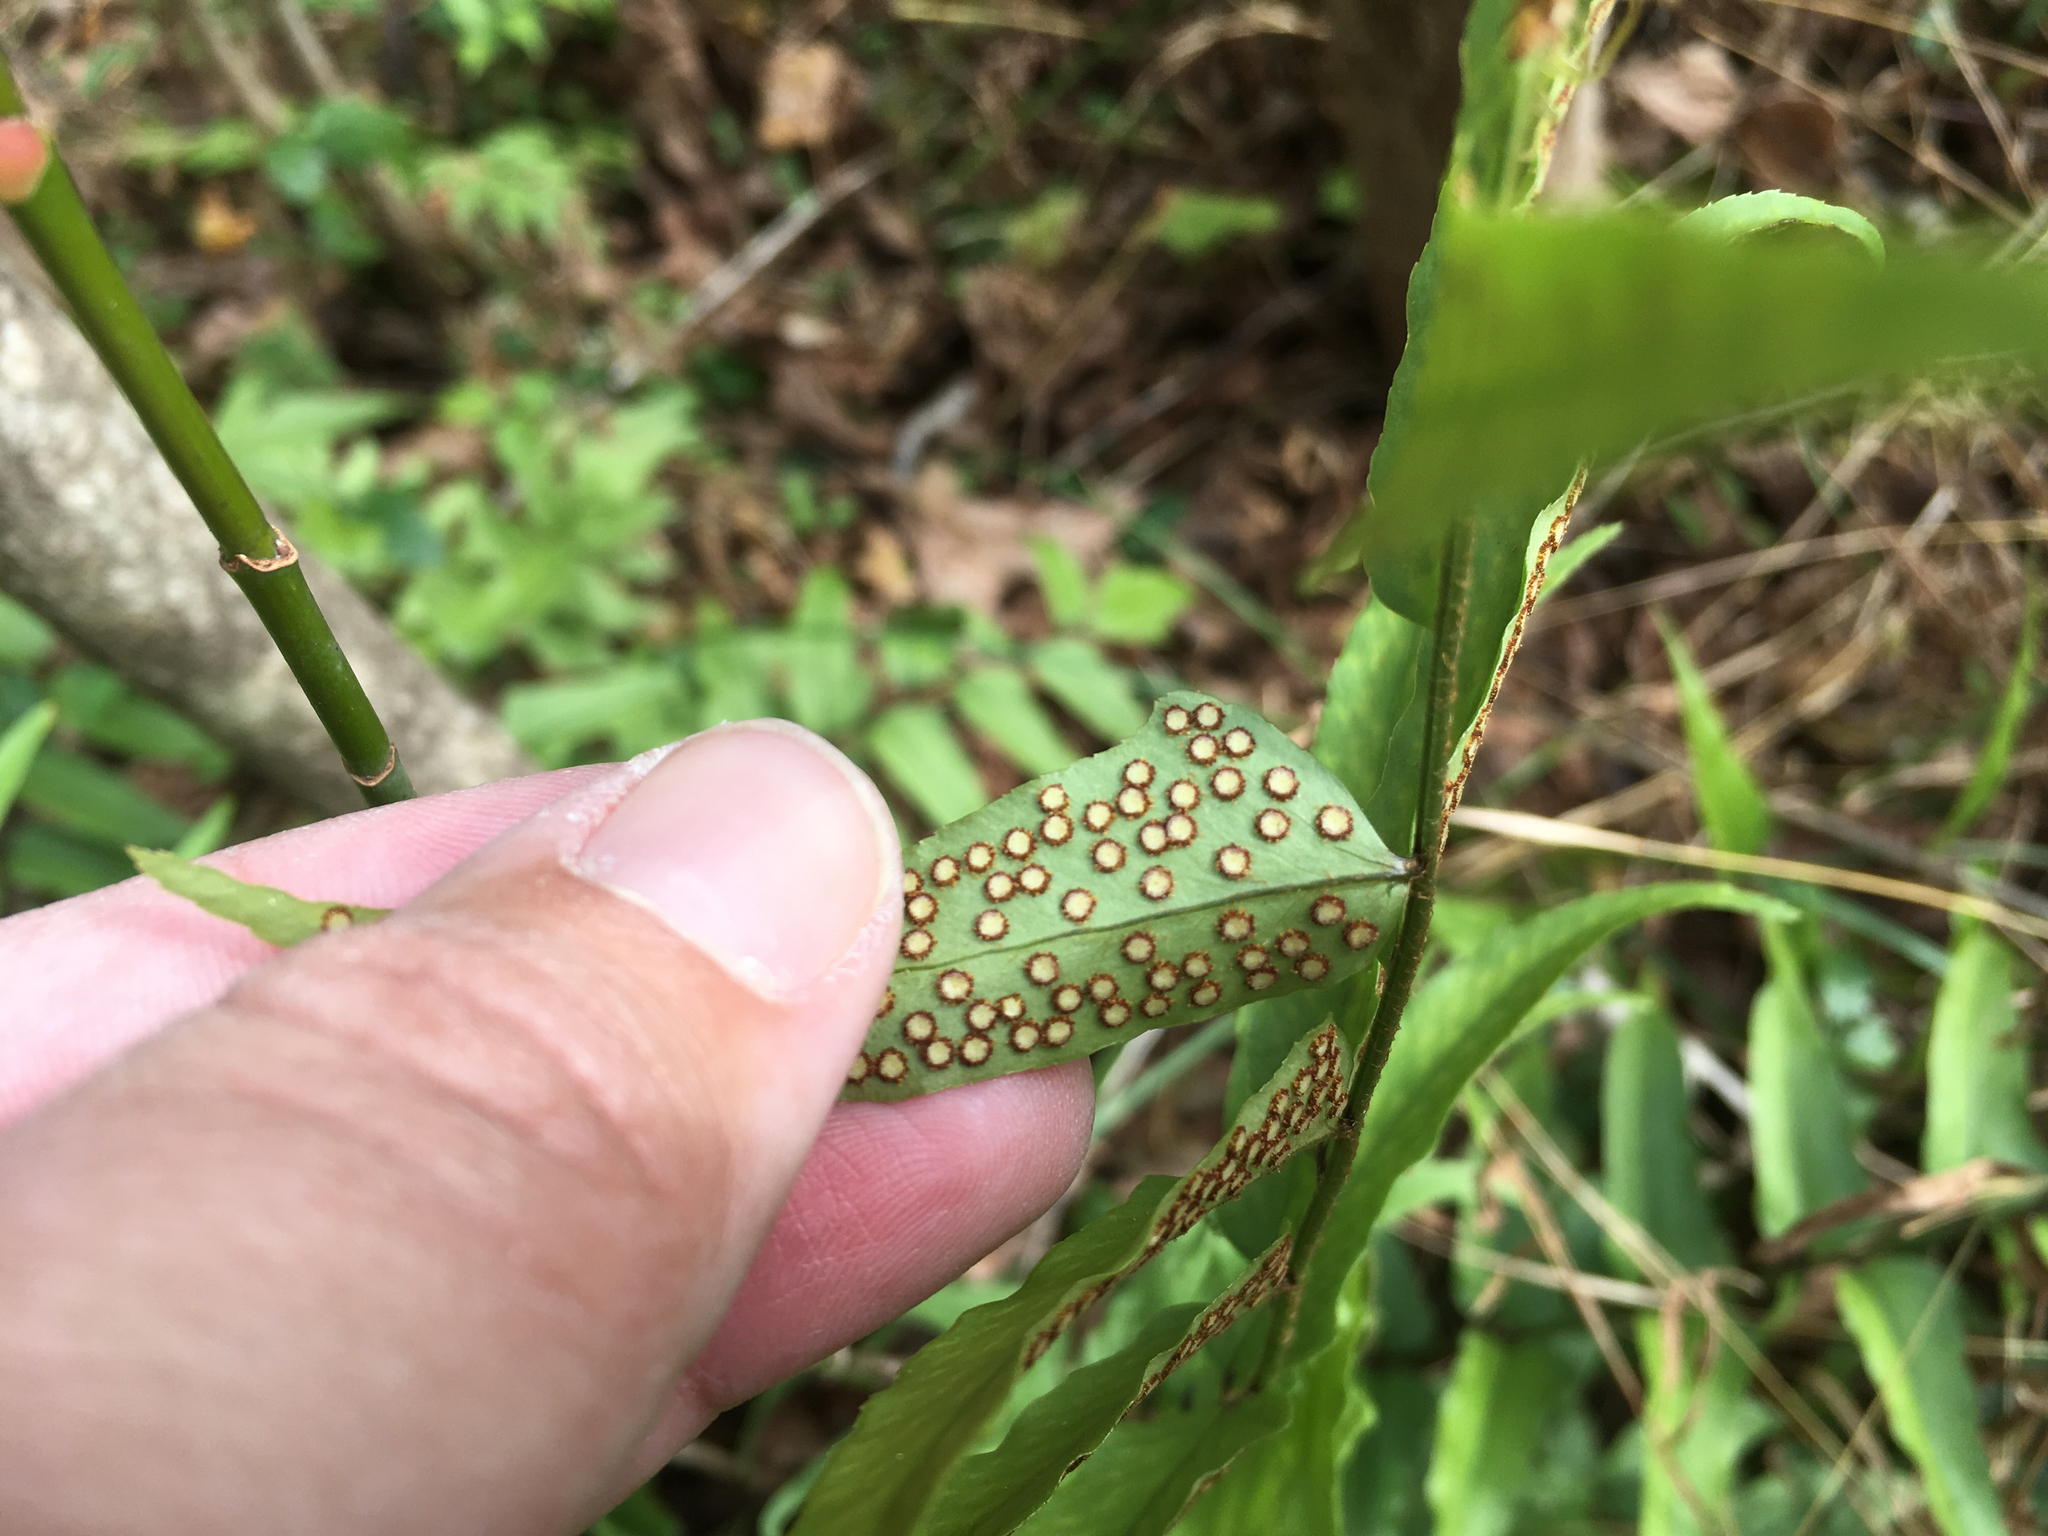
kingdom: Plantae
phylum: Tracheophyta
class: Polypodiopsida
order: Polypodiales
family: Dryopteridaceae
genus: Cyrtomium
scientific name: Cyrtomium fortunei
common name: Asian netvein hollyfern
